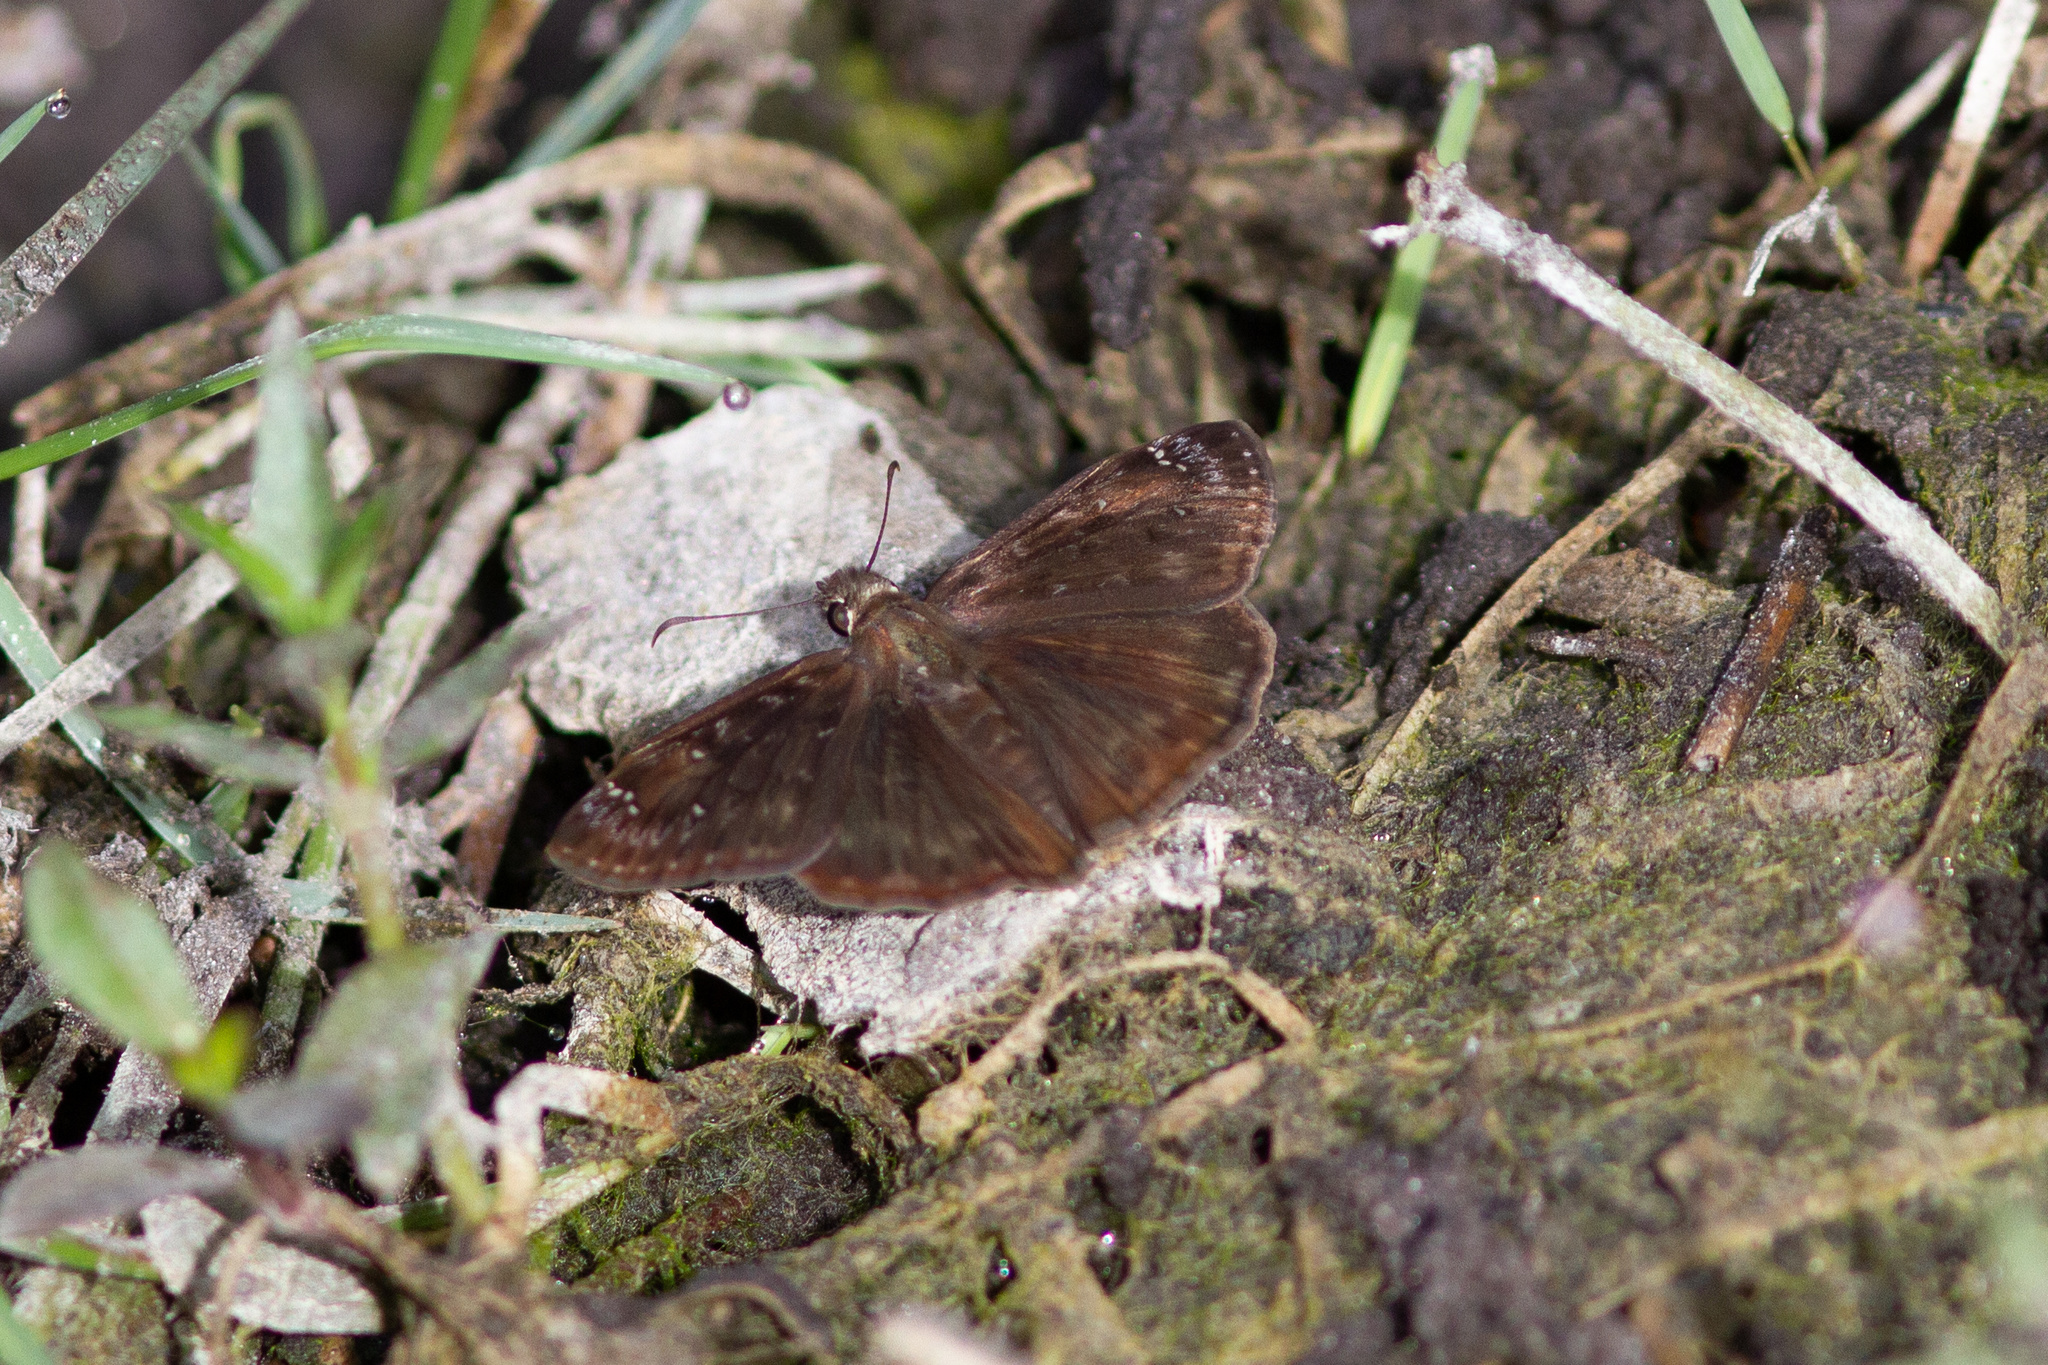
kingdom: Animalia
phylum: Arthropoda
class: Insecta
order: Lepidoptera
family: Hesperiidae
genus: Erynnis
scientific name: Erynnis horatius
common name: Horace's duskywing
